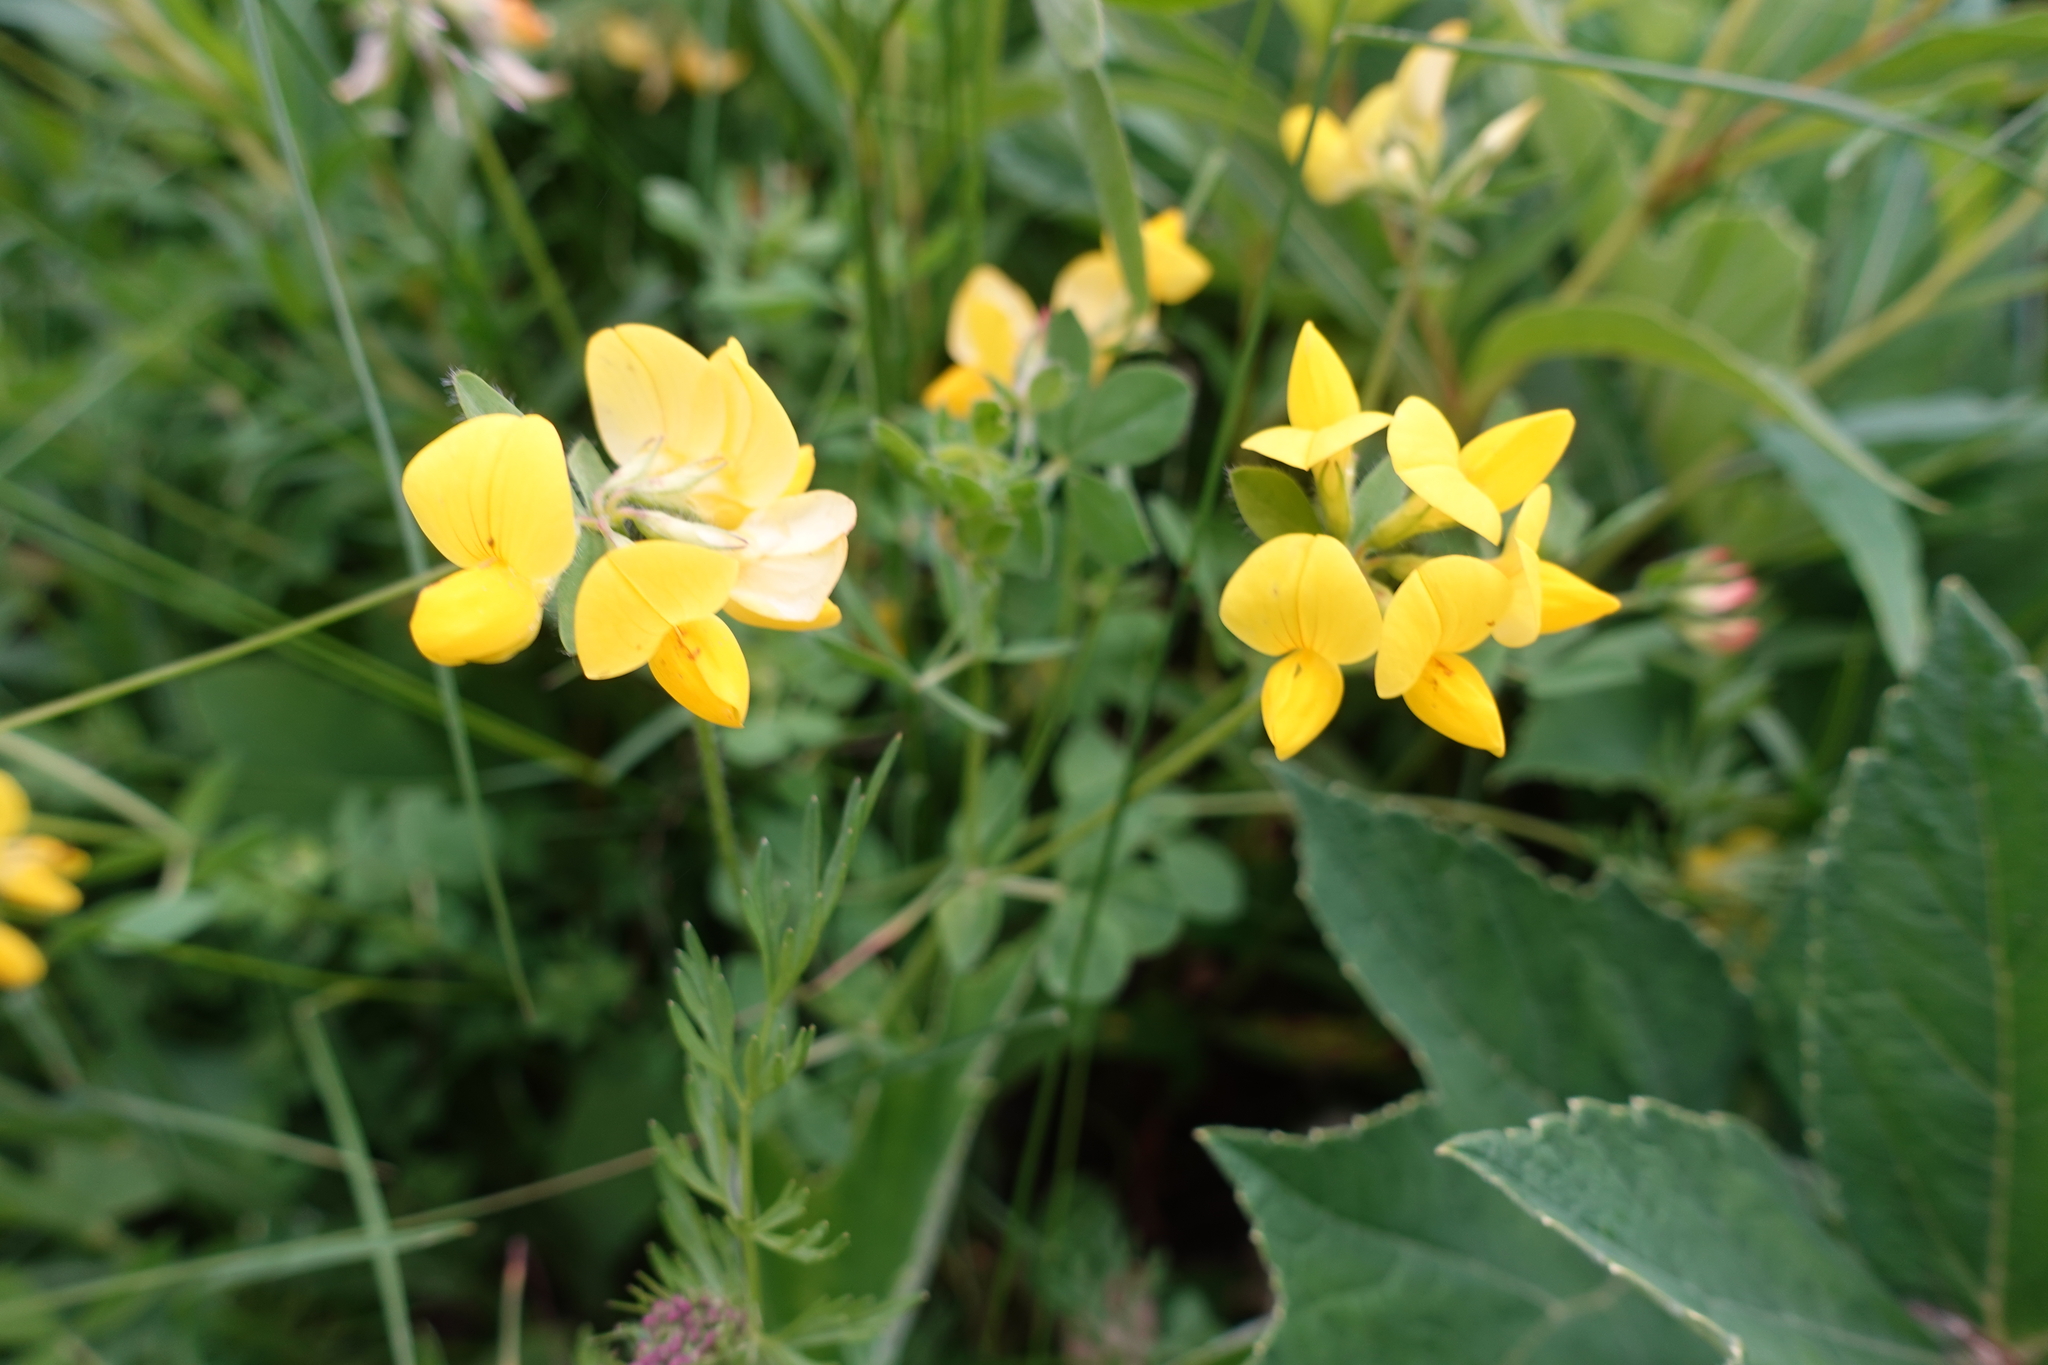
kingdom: Plantae
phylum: Tracheophyta
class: Magnoliopsida
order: Fabales
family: Fabaceae
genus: Lotus
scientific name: Lotus corniculatus
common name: Common bird's-foot-trefoil
